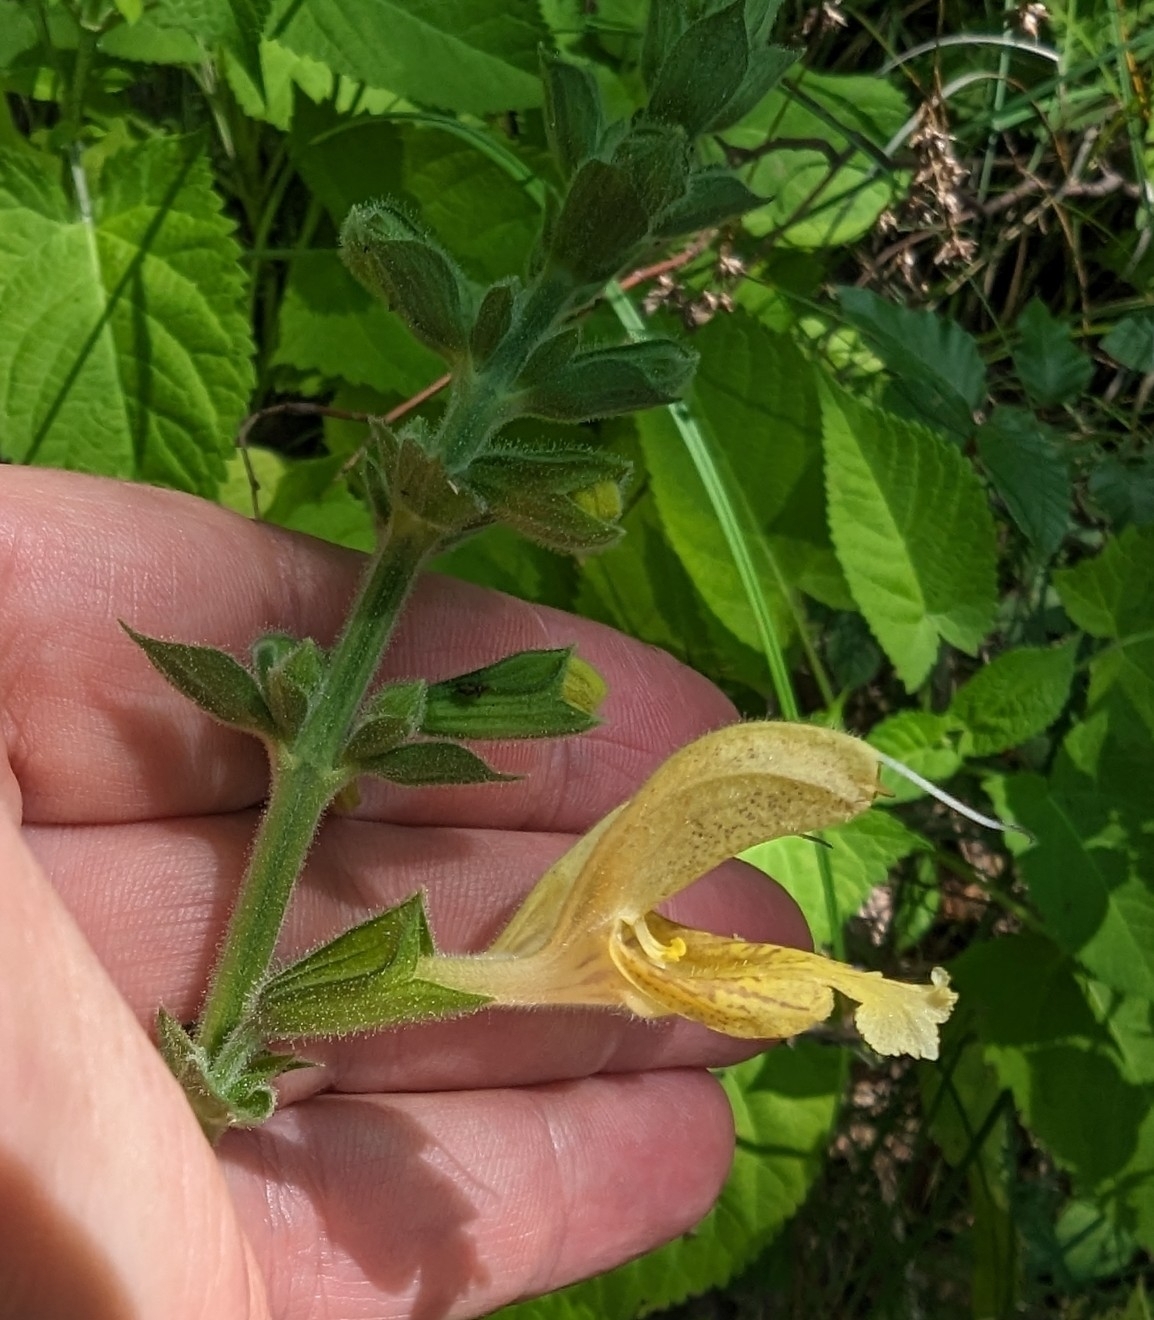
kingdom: Plantae
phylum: Tracheophyta
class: Magnoliopsida
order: Lamiales
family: Lamiaceae
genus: Salvia
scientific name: Salvia glutinosa
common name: Sticky clary
